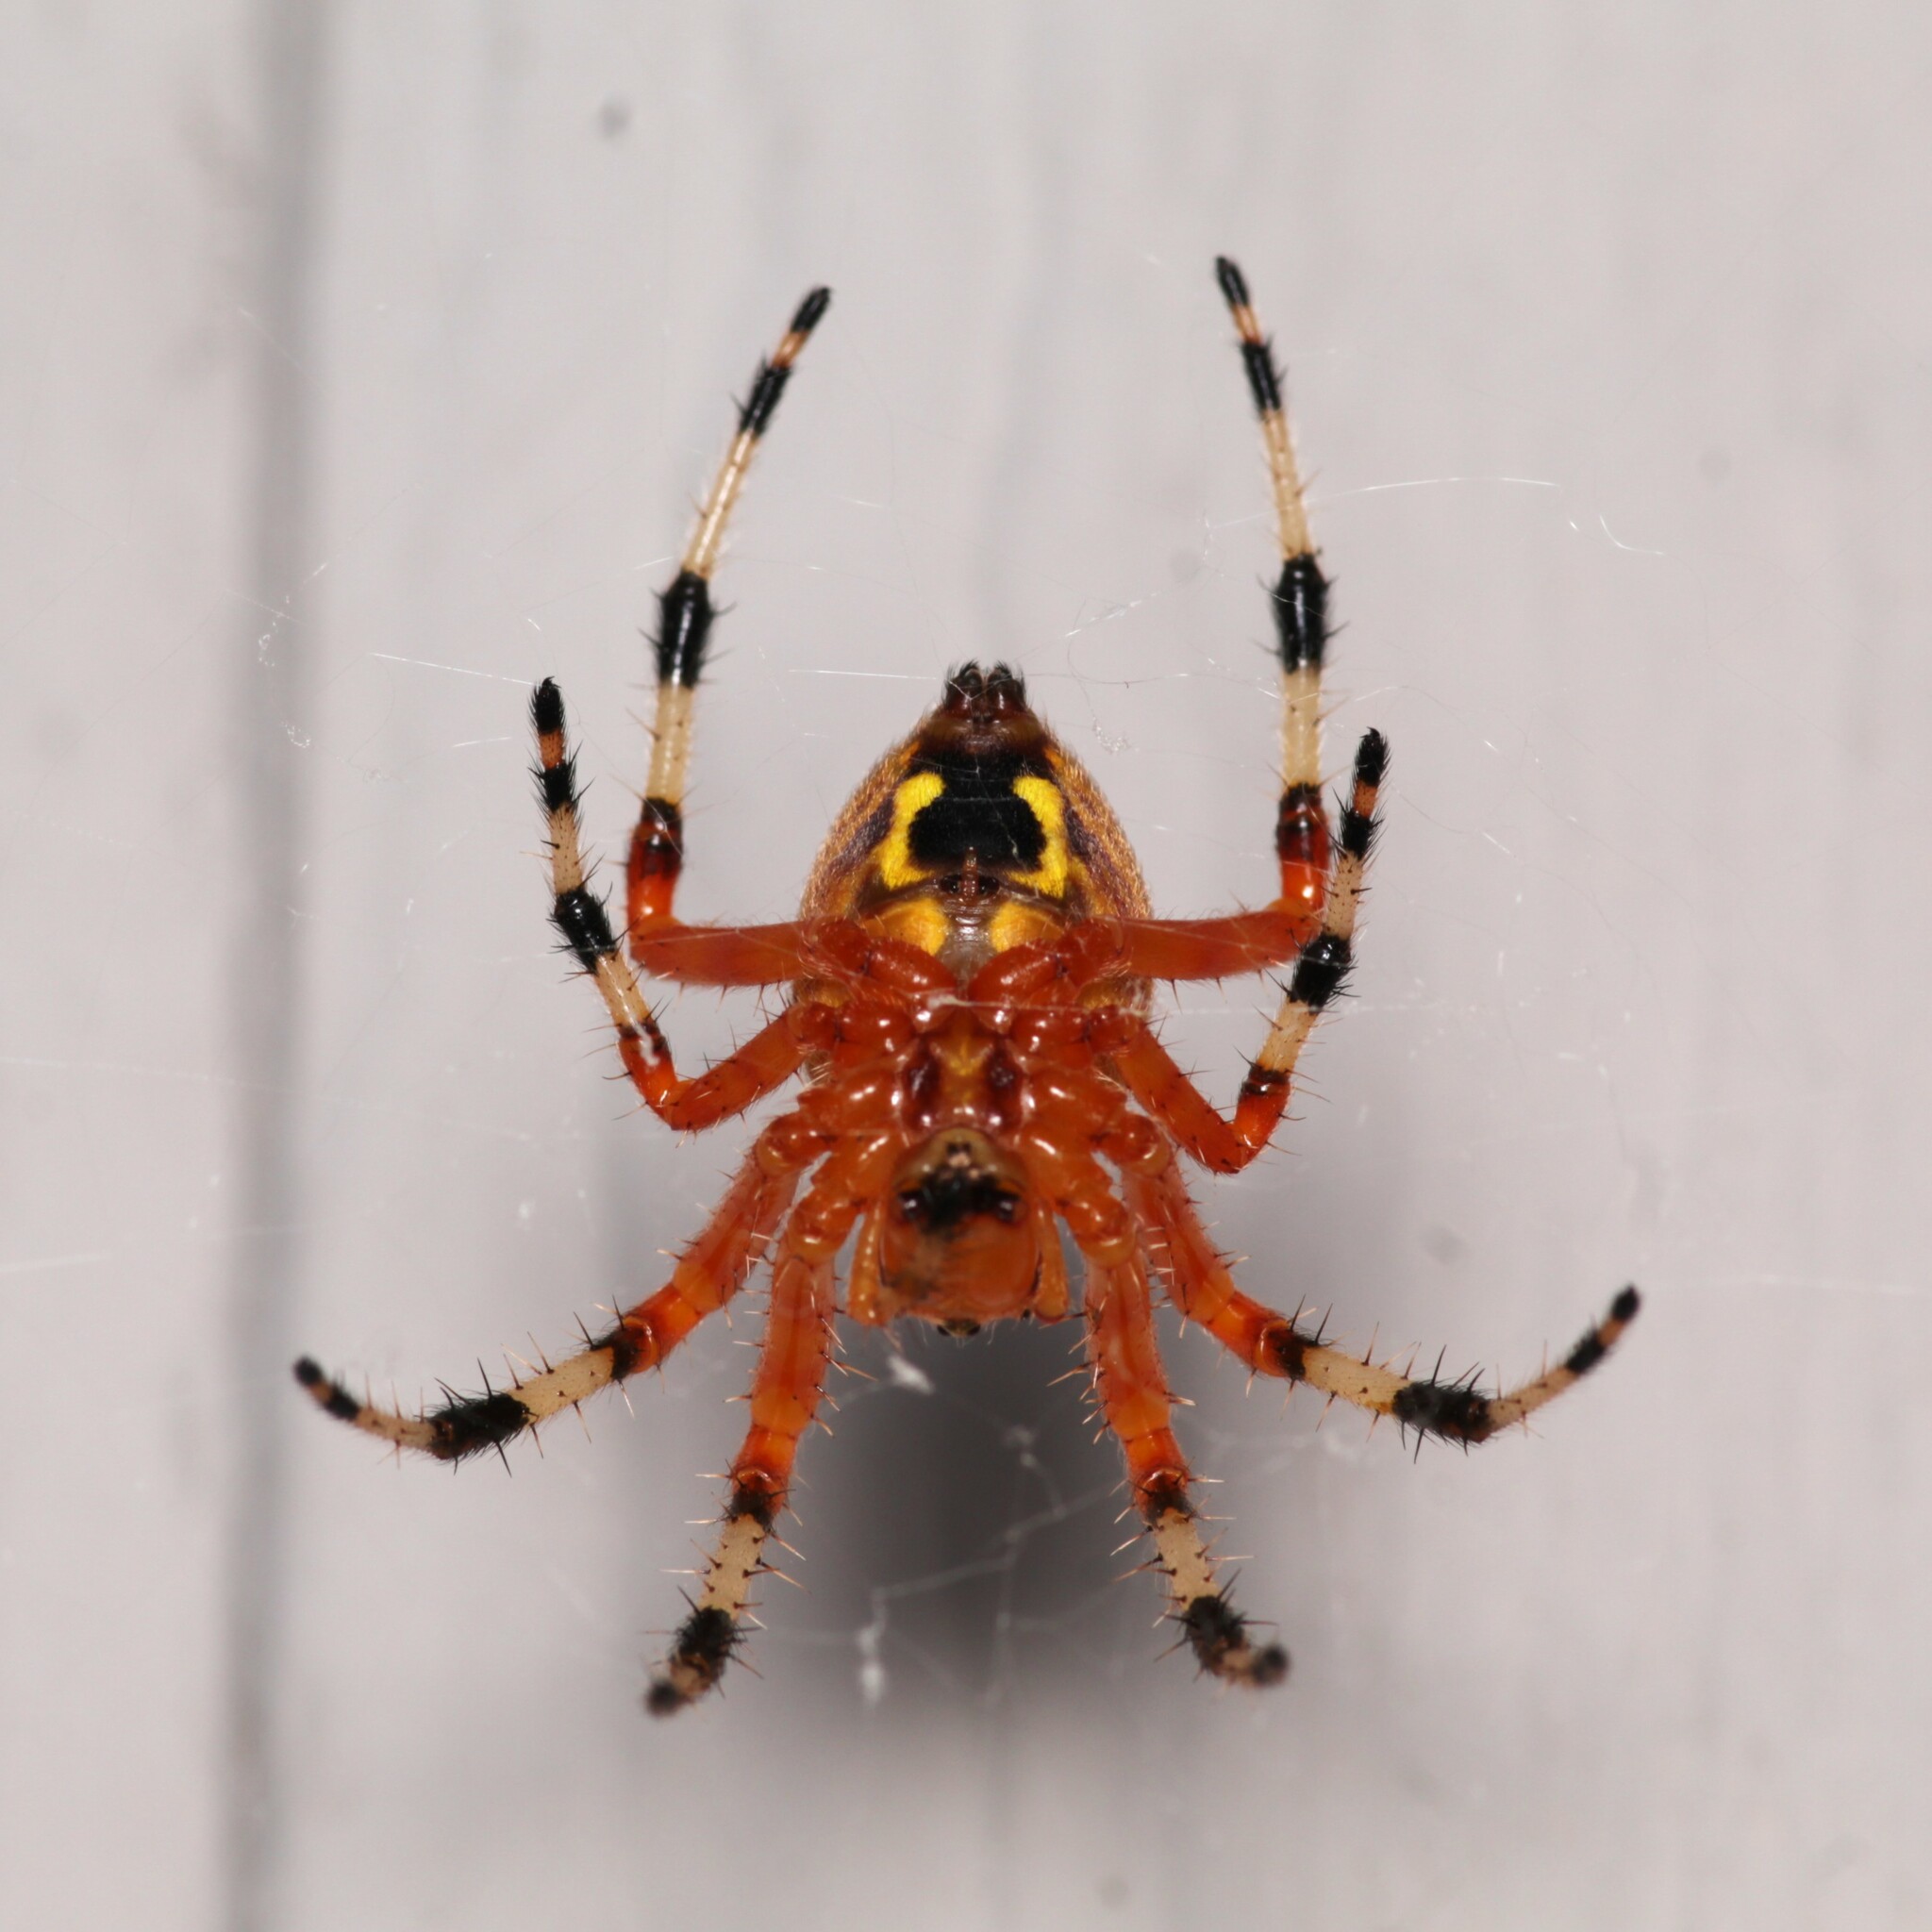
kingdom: Animalia
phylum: Arthropoda
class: Arachnida
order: Araneae
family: Araneidae
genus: Araneus
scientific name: Araneus marmoreus
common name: Marbled orbweaver
